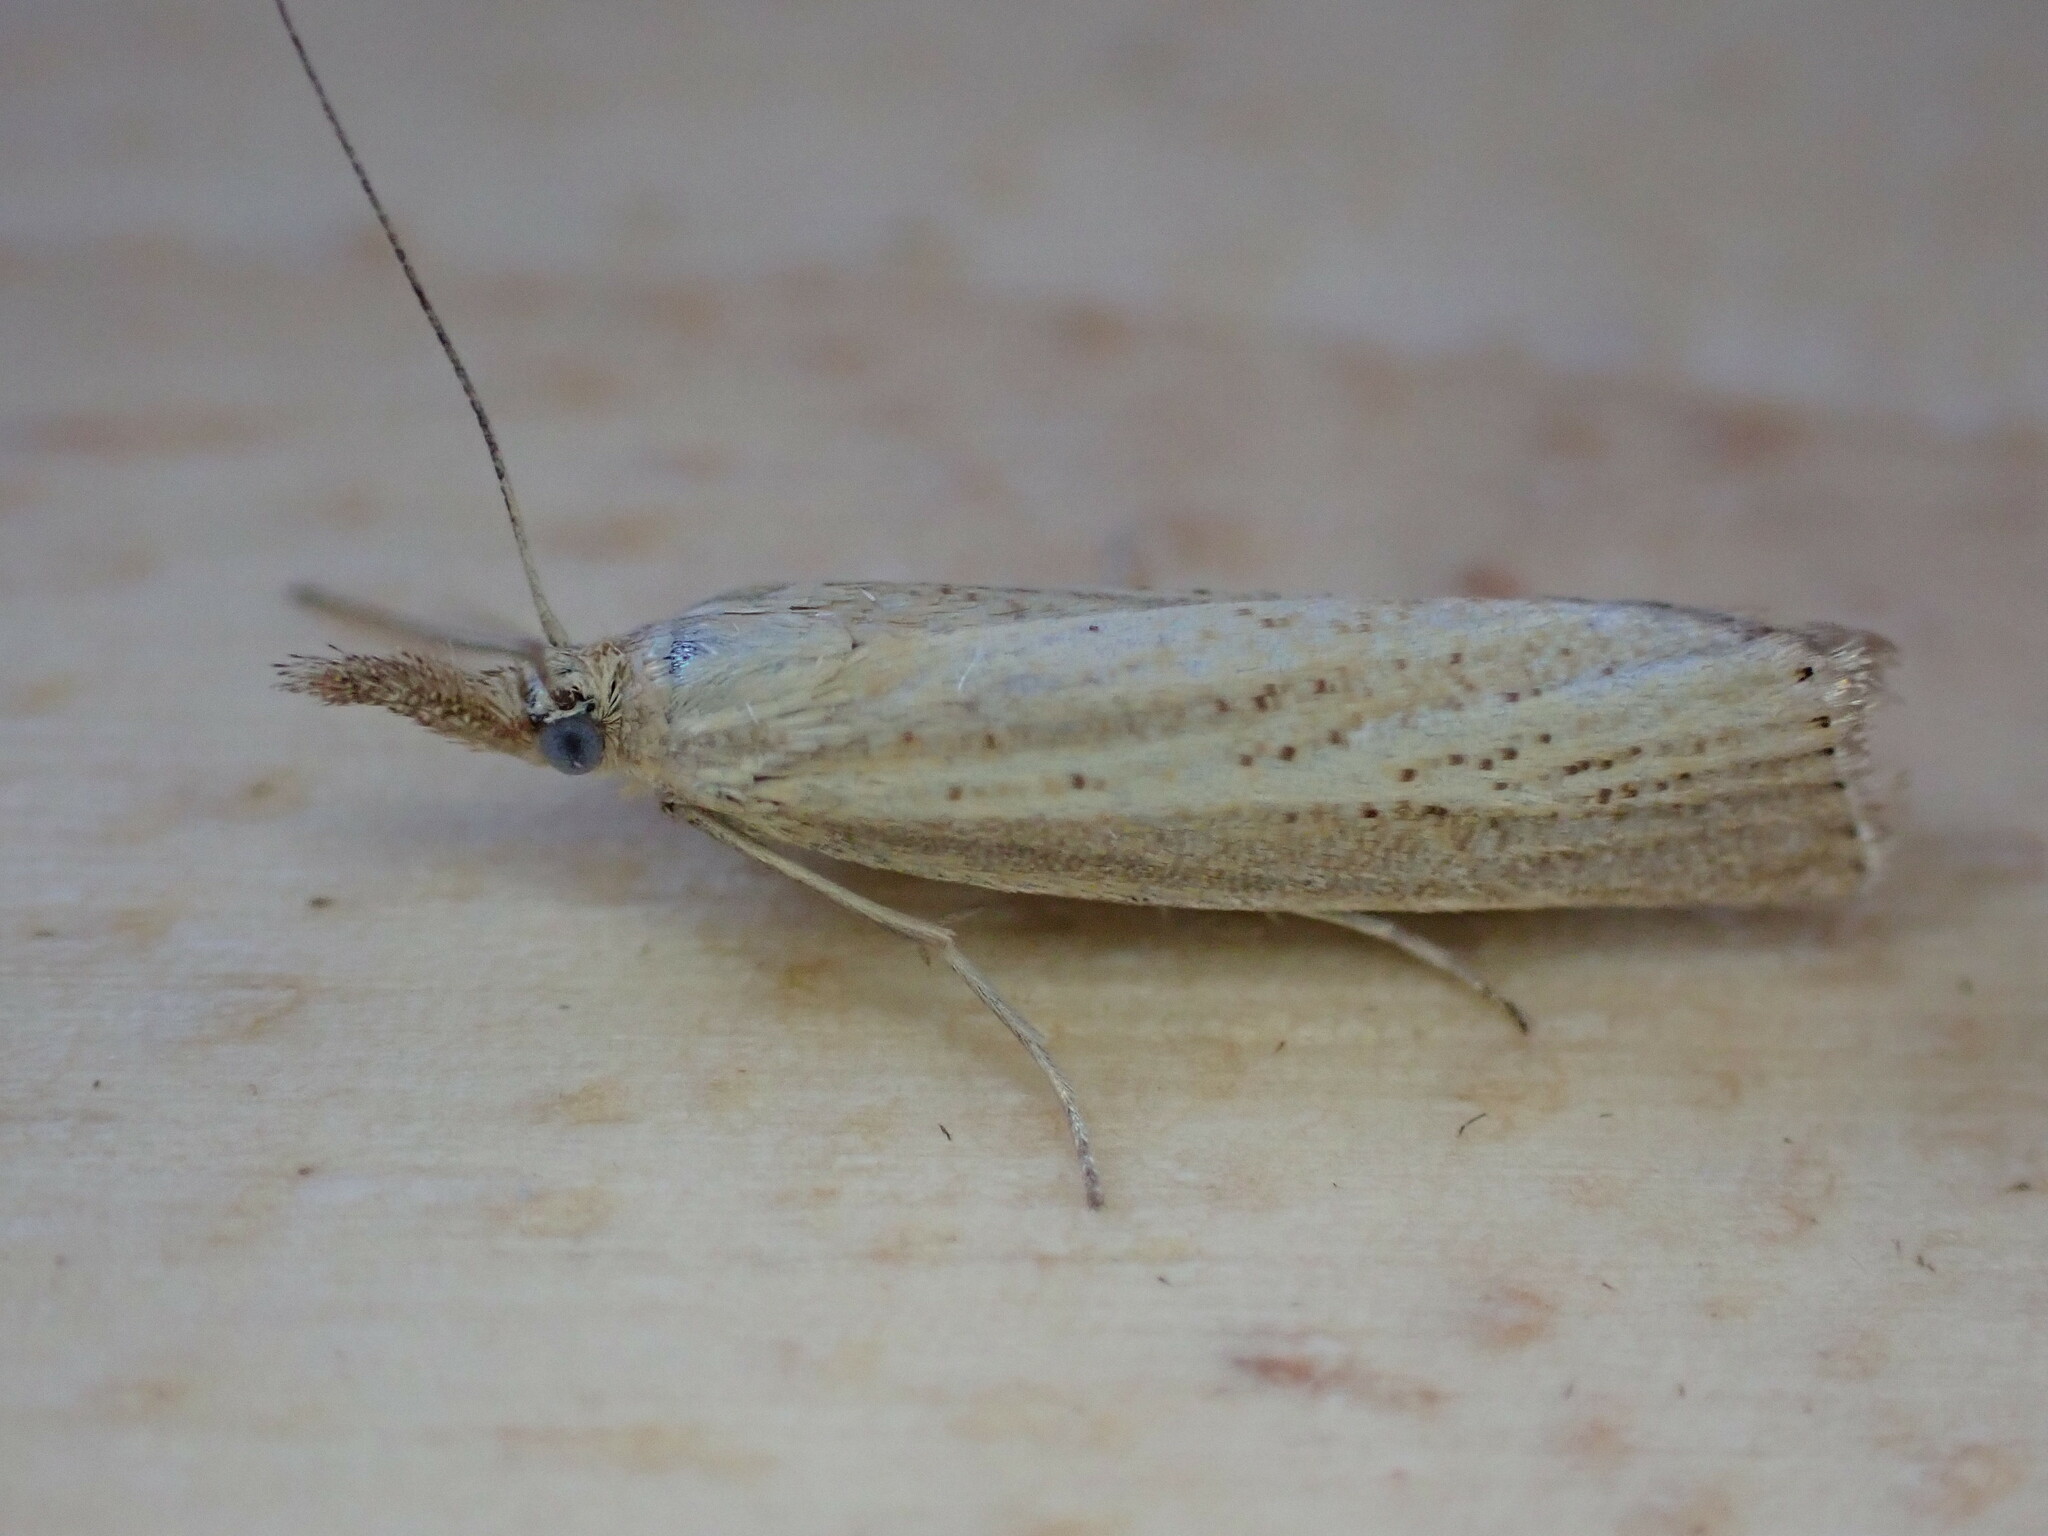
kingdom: Animalia
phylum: Arthropoda
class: Insecta
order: Lepidoptera
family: Crambidae
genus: Agriphila
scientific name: Agriphila straminella
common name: Straw grass-veneer
